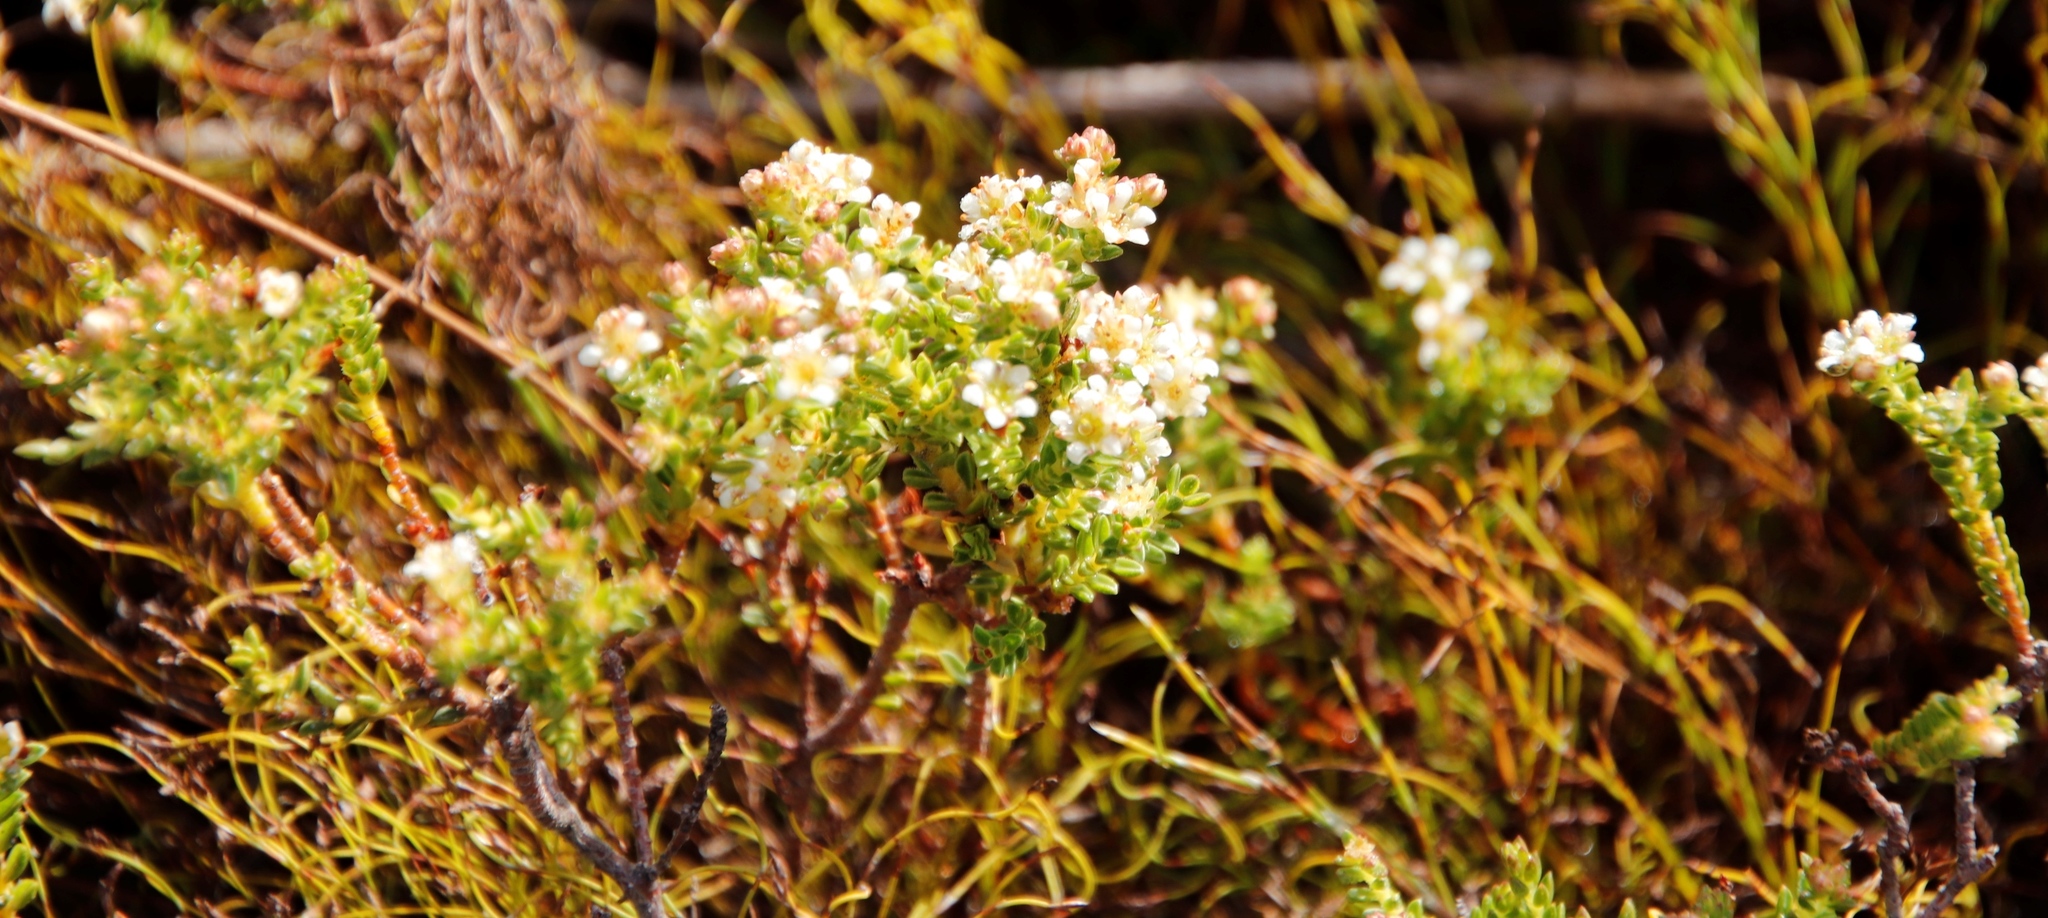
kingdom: Plantae
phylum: Tracheophyta
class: Magnoliopsida
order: Sapindales
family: Rutaceae
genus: Diosma
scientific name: Diosma oppositifolia
